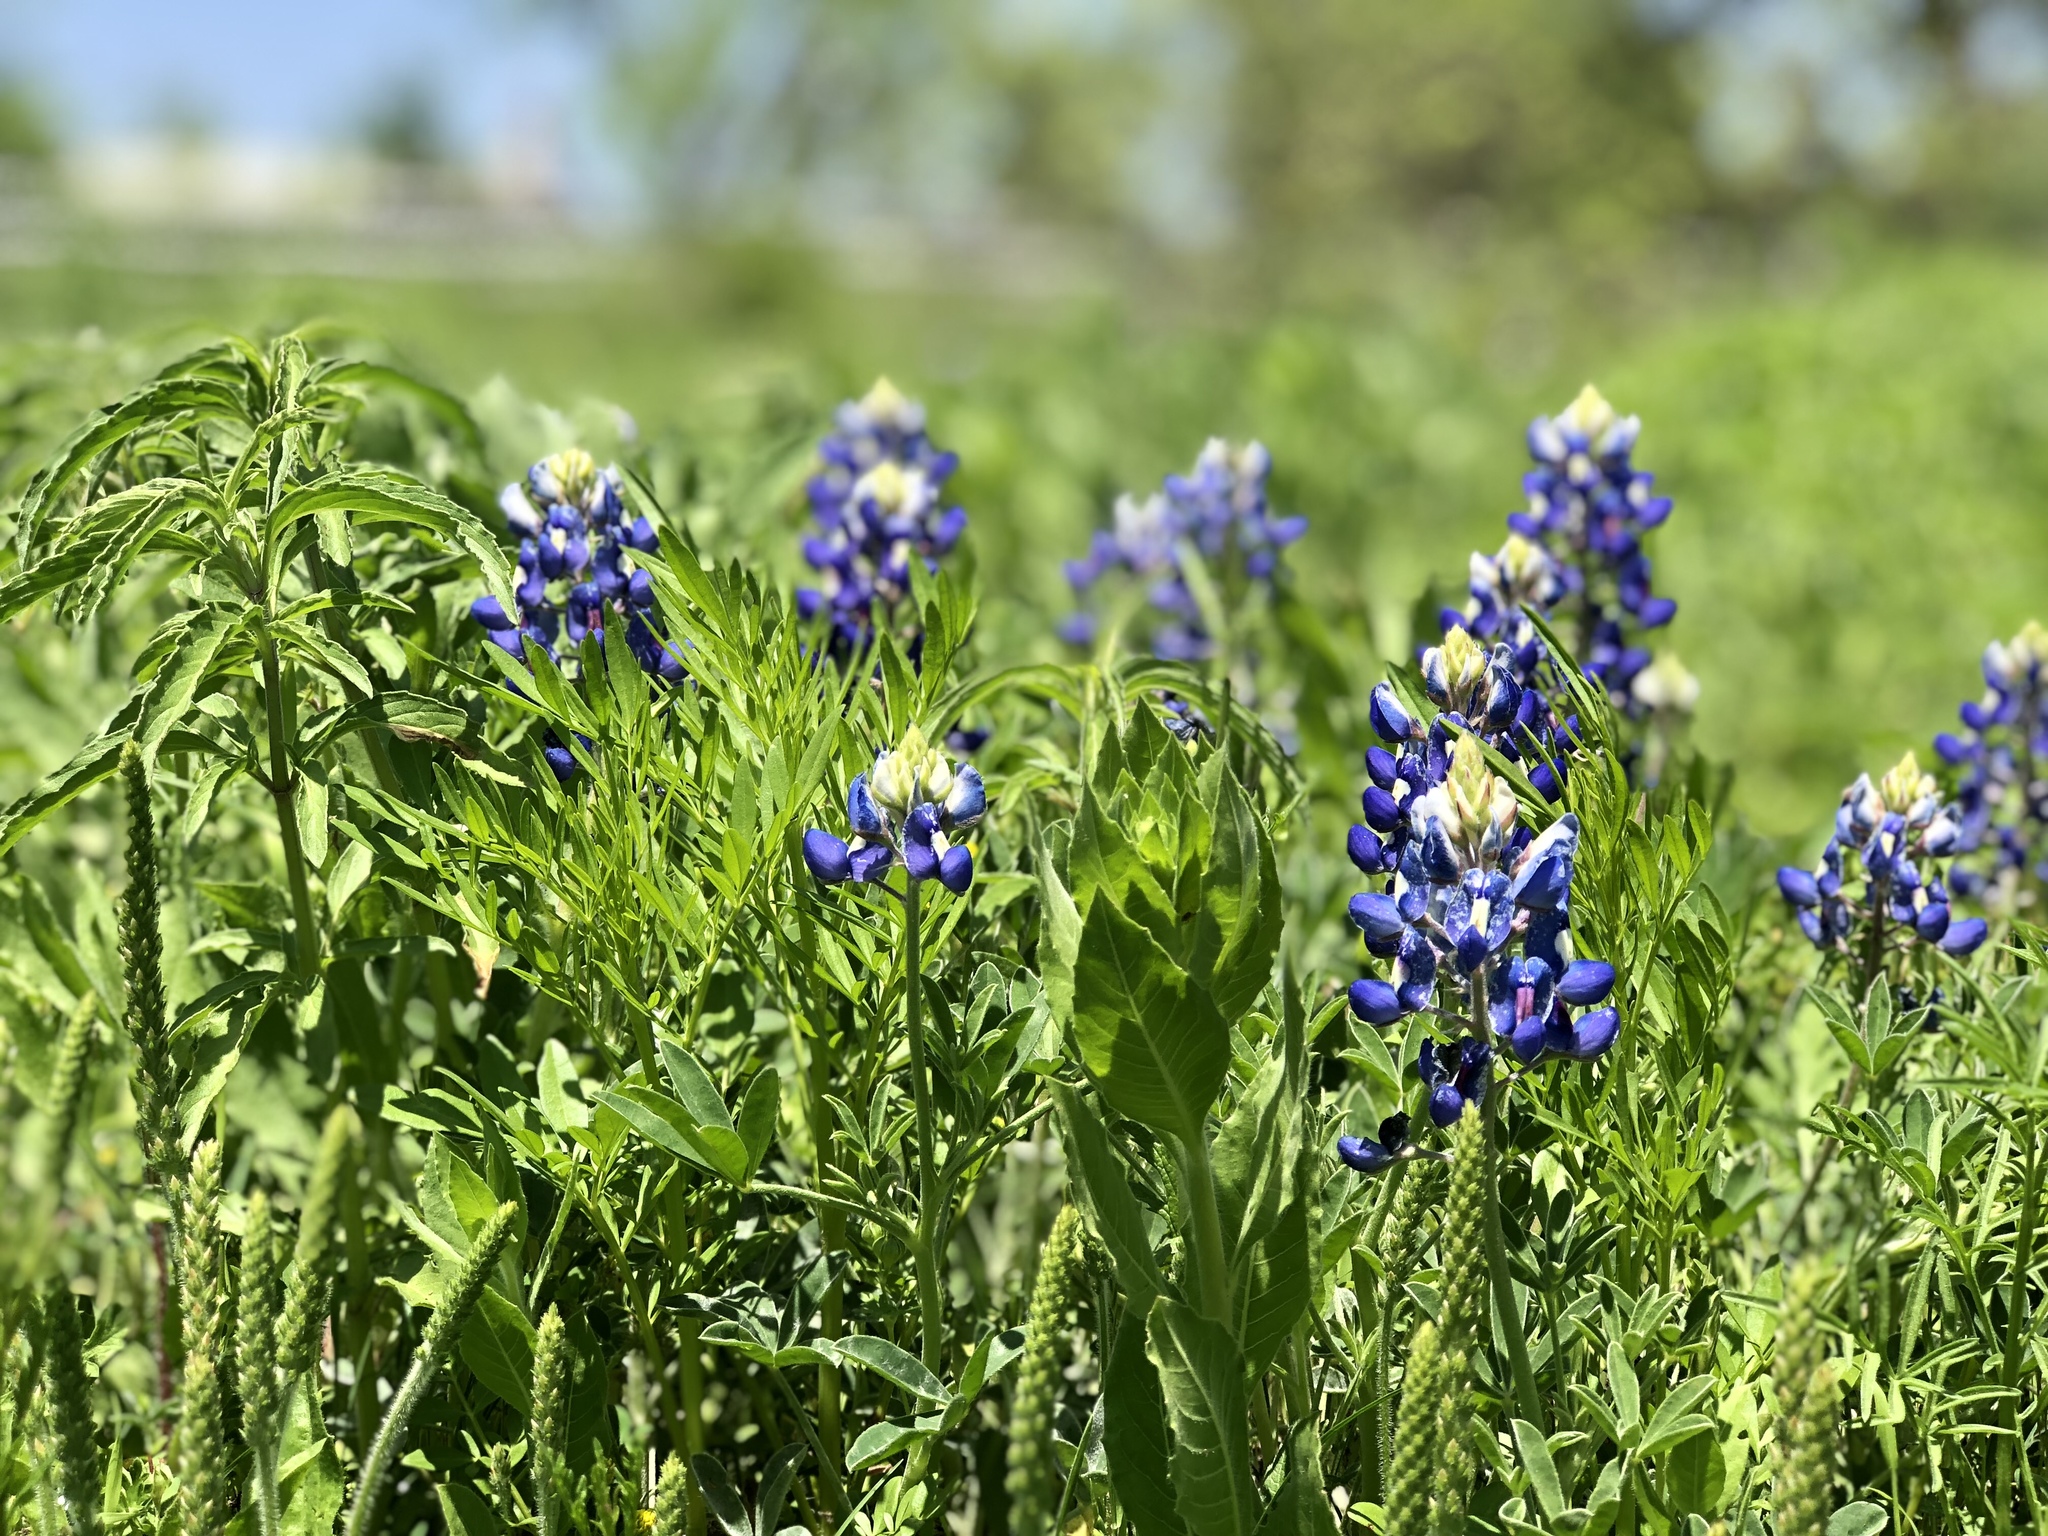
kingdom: Plantae
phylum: Tracheophyta
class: Magnoliopsida
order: Fabales
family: Fabaceae
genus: Lupinus
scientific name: Lupinus texensis
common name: Texas bluebonnet
